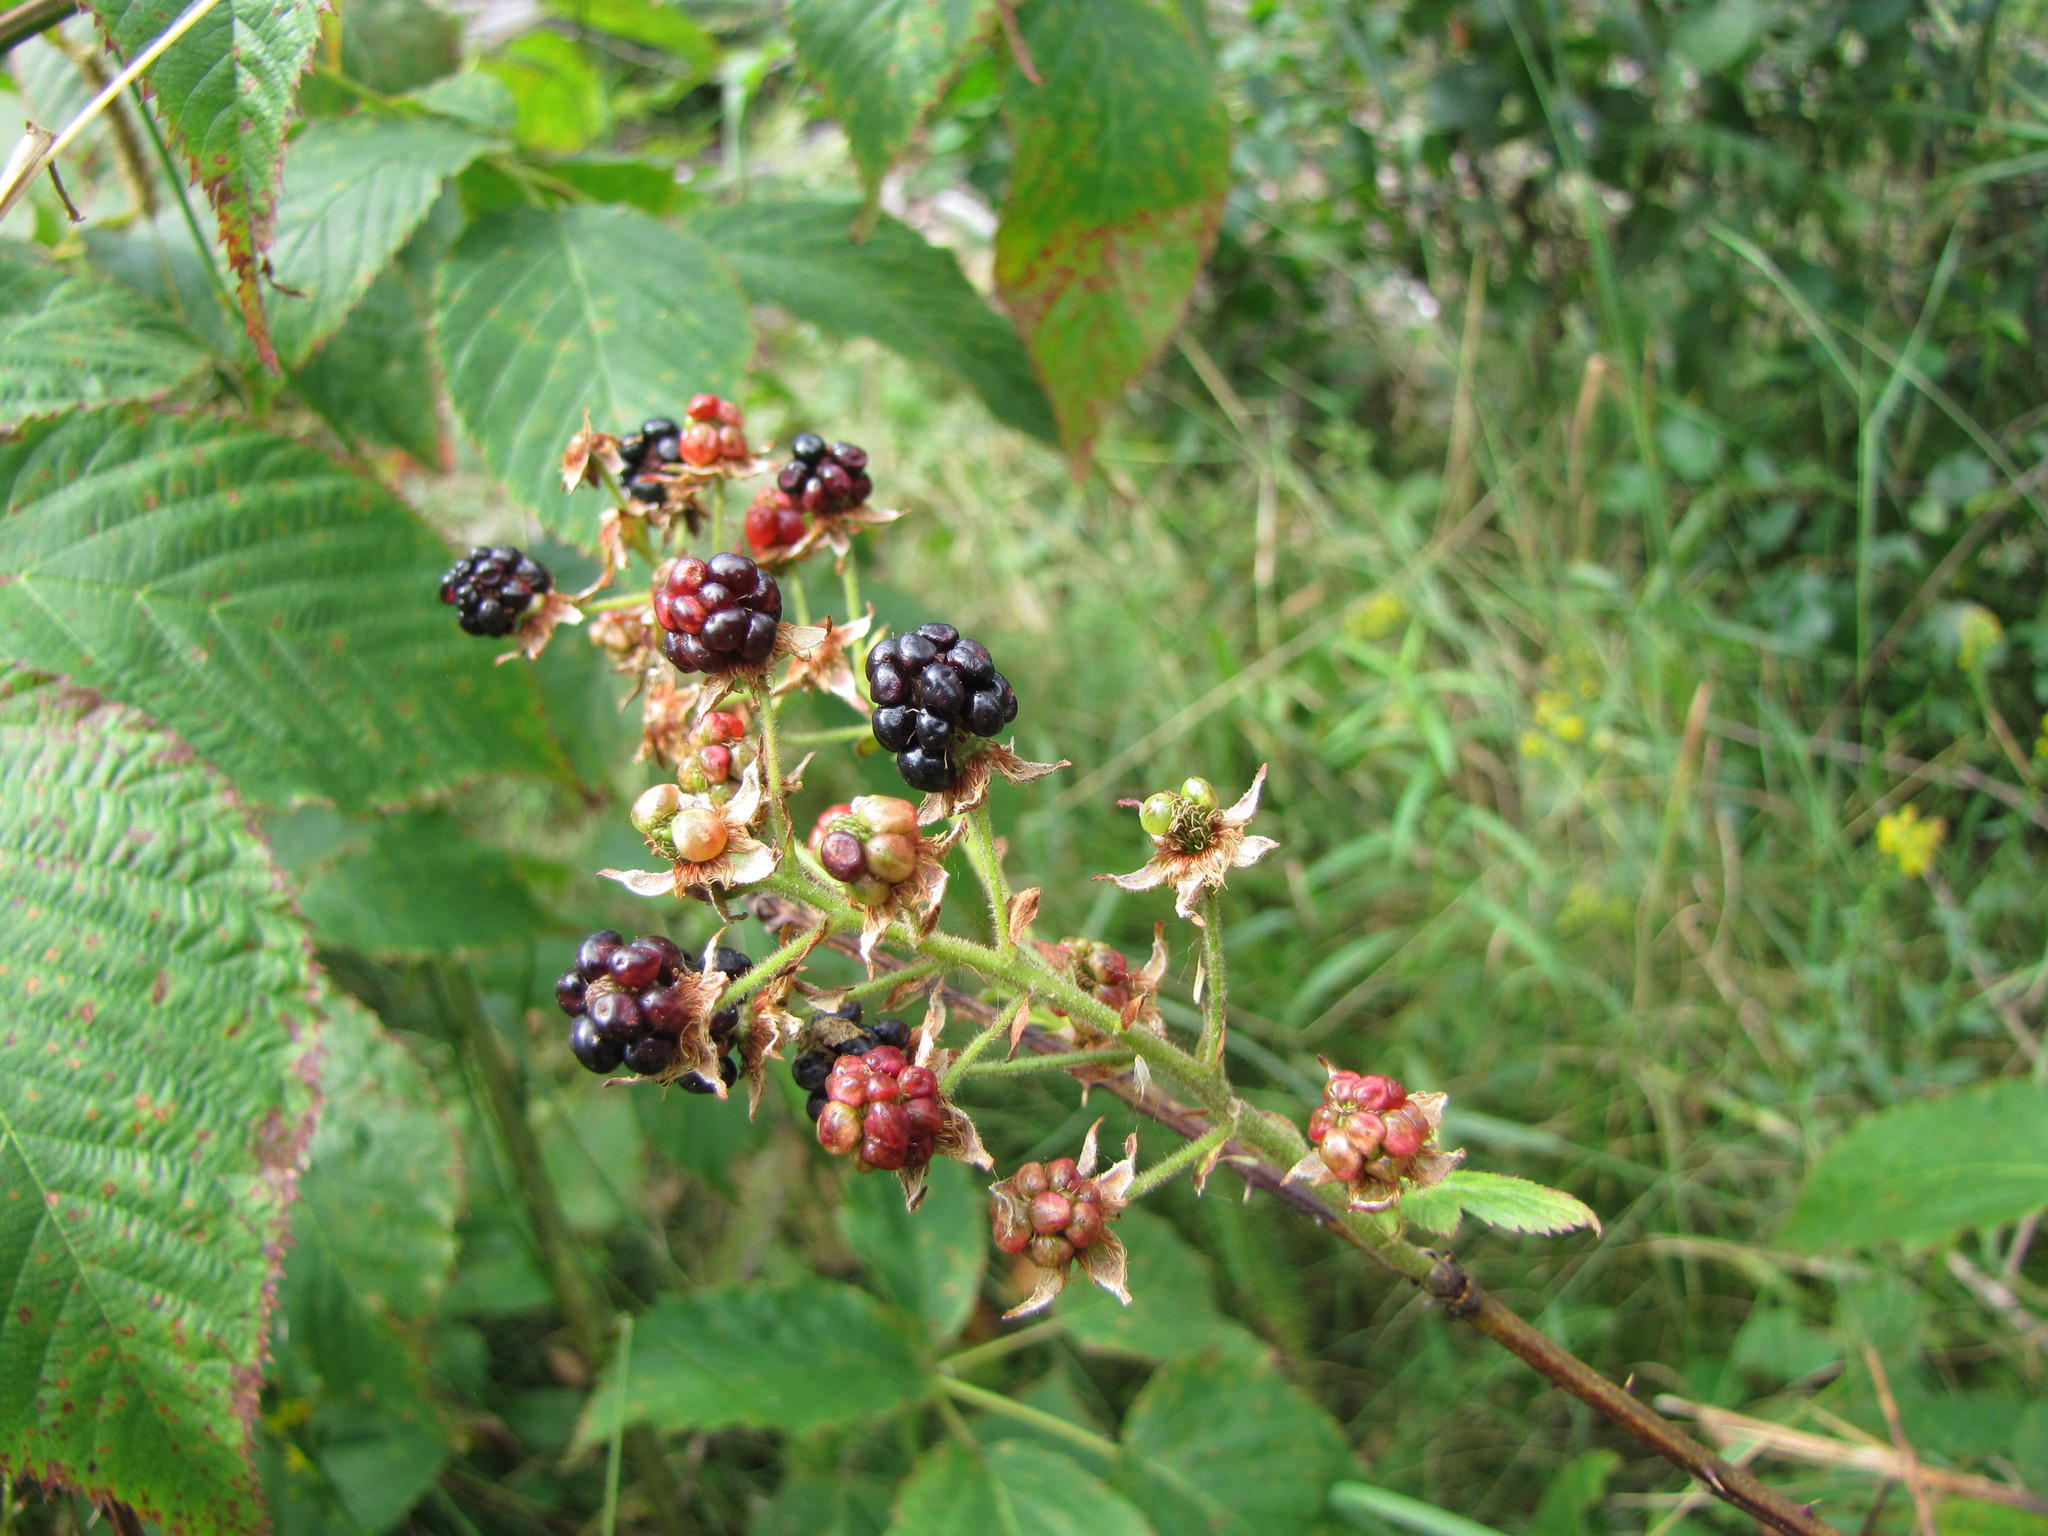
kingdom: Plantae
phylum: Tracheophyta
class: Magnoliopsida
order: Rosales
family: Rosaceae
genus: Rubus
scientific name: Rubus allegheniensis
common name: Allegheny blackberry
